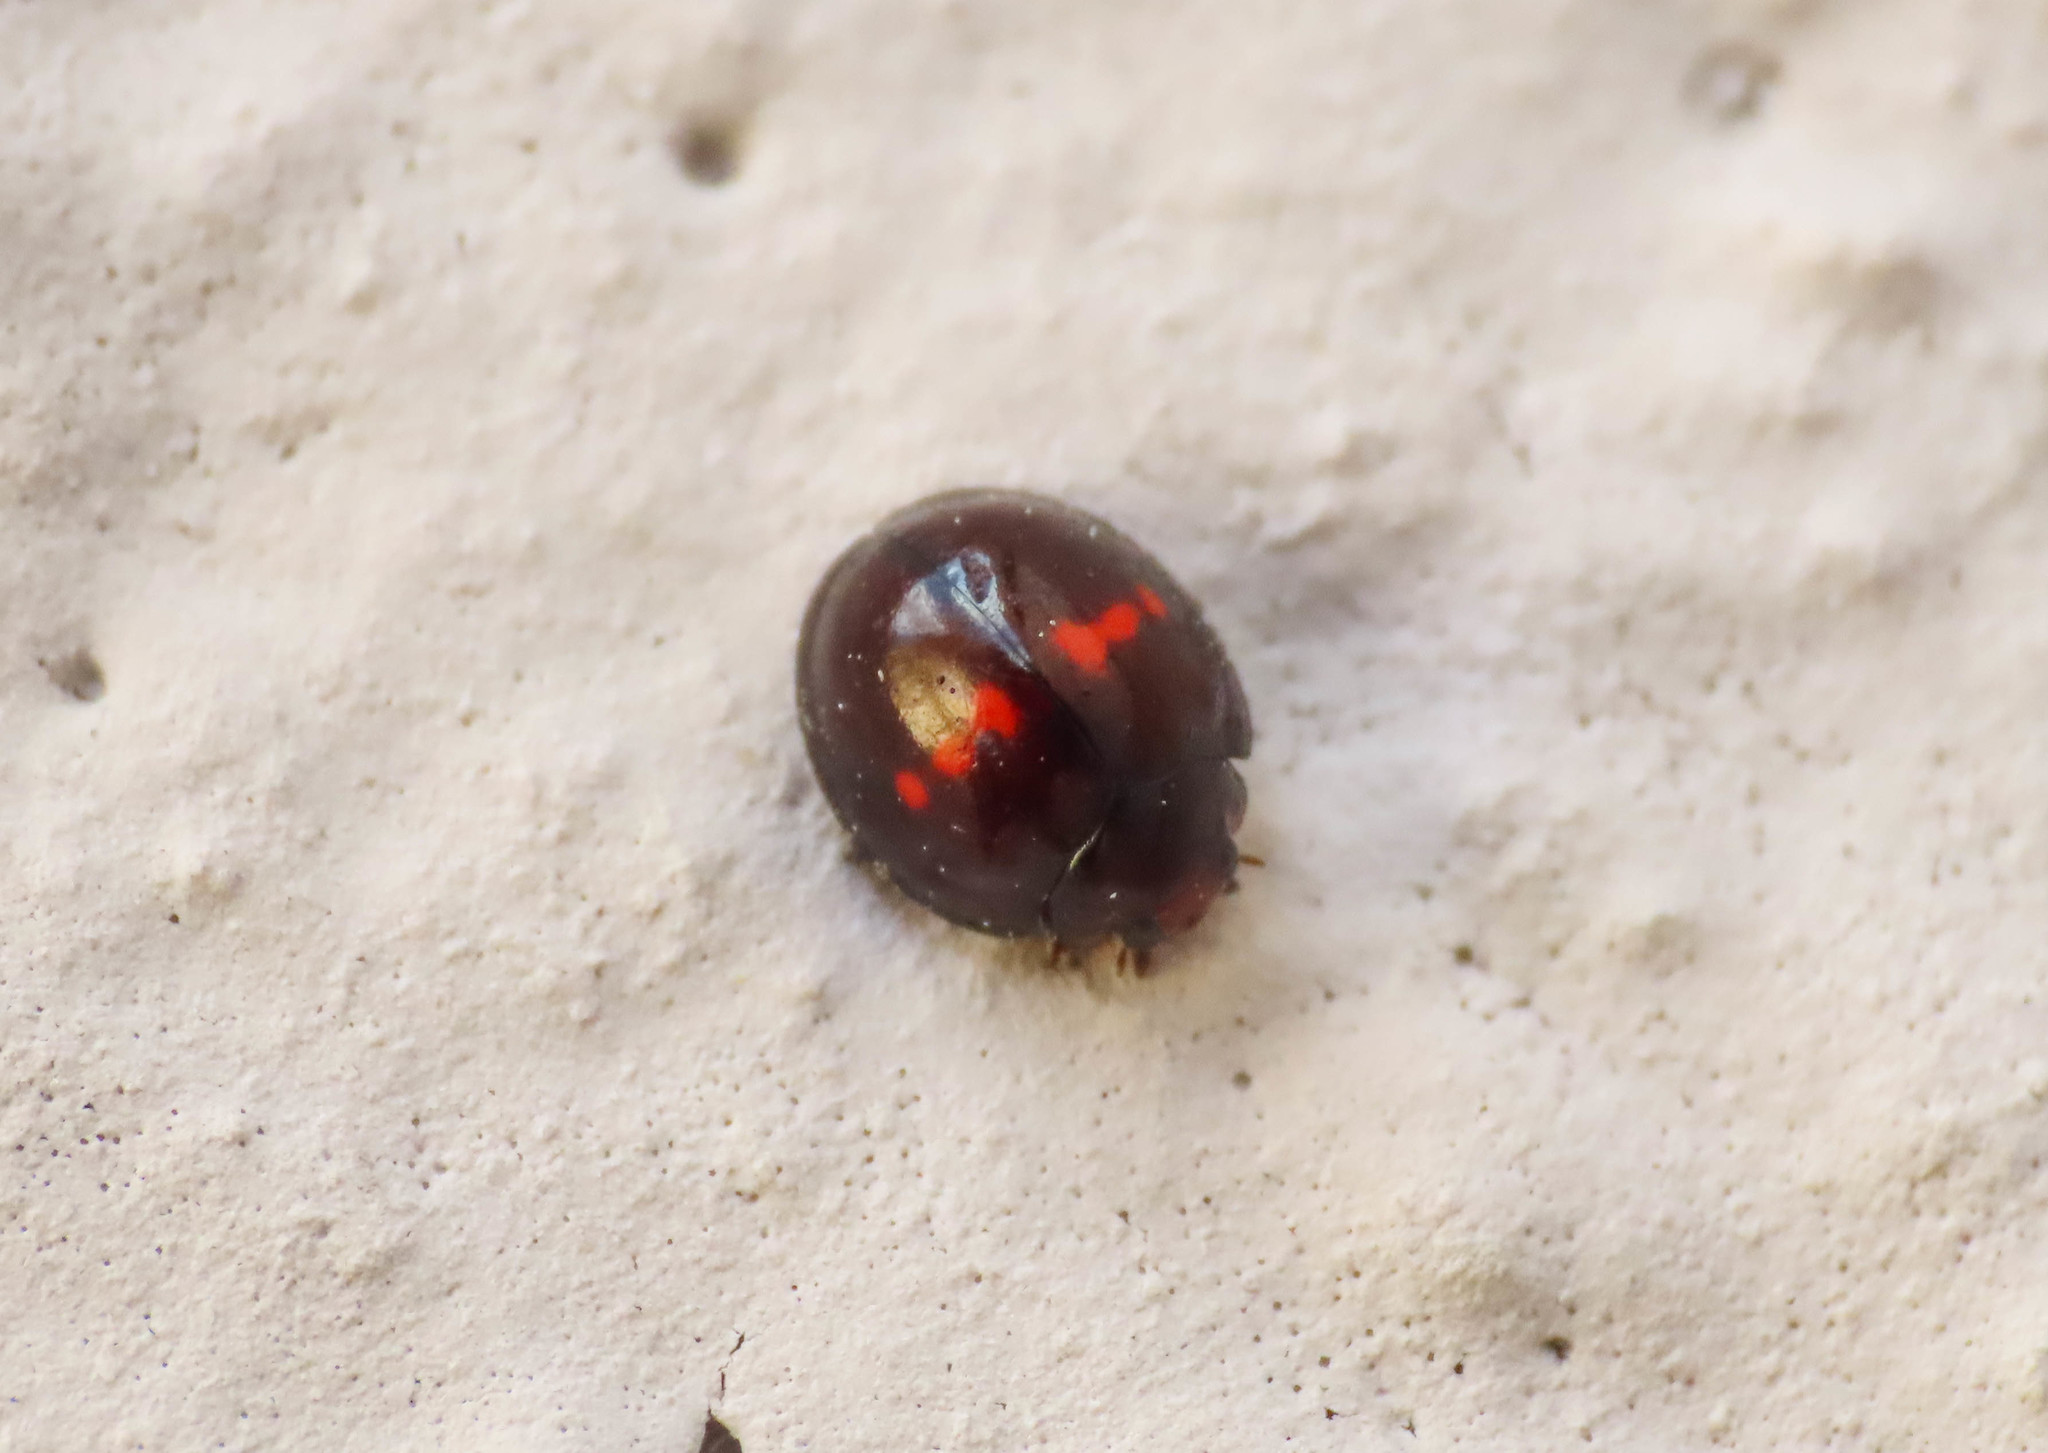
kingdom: Animalia
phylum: Arthropoda
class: Insecta
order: Coleoptera
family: Coccinellidae
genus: Chilocorus
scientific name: Chilocorus bipustulatus
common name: Heather ladybird
